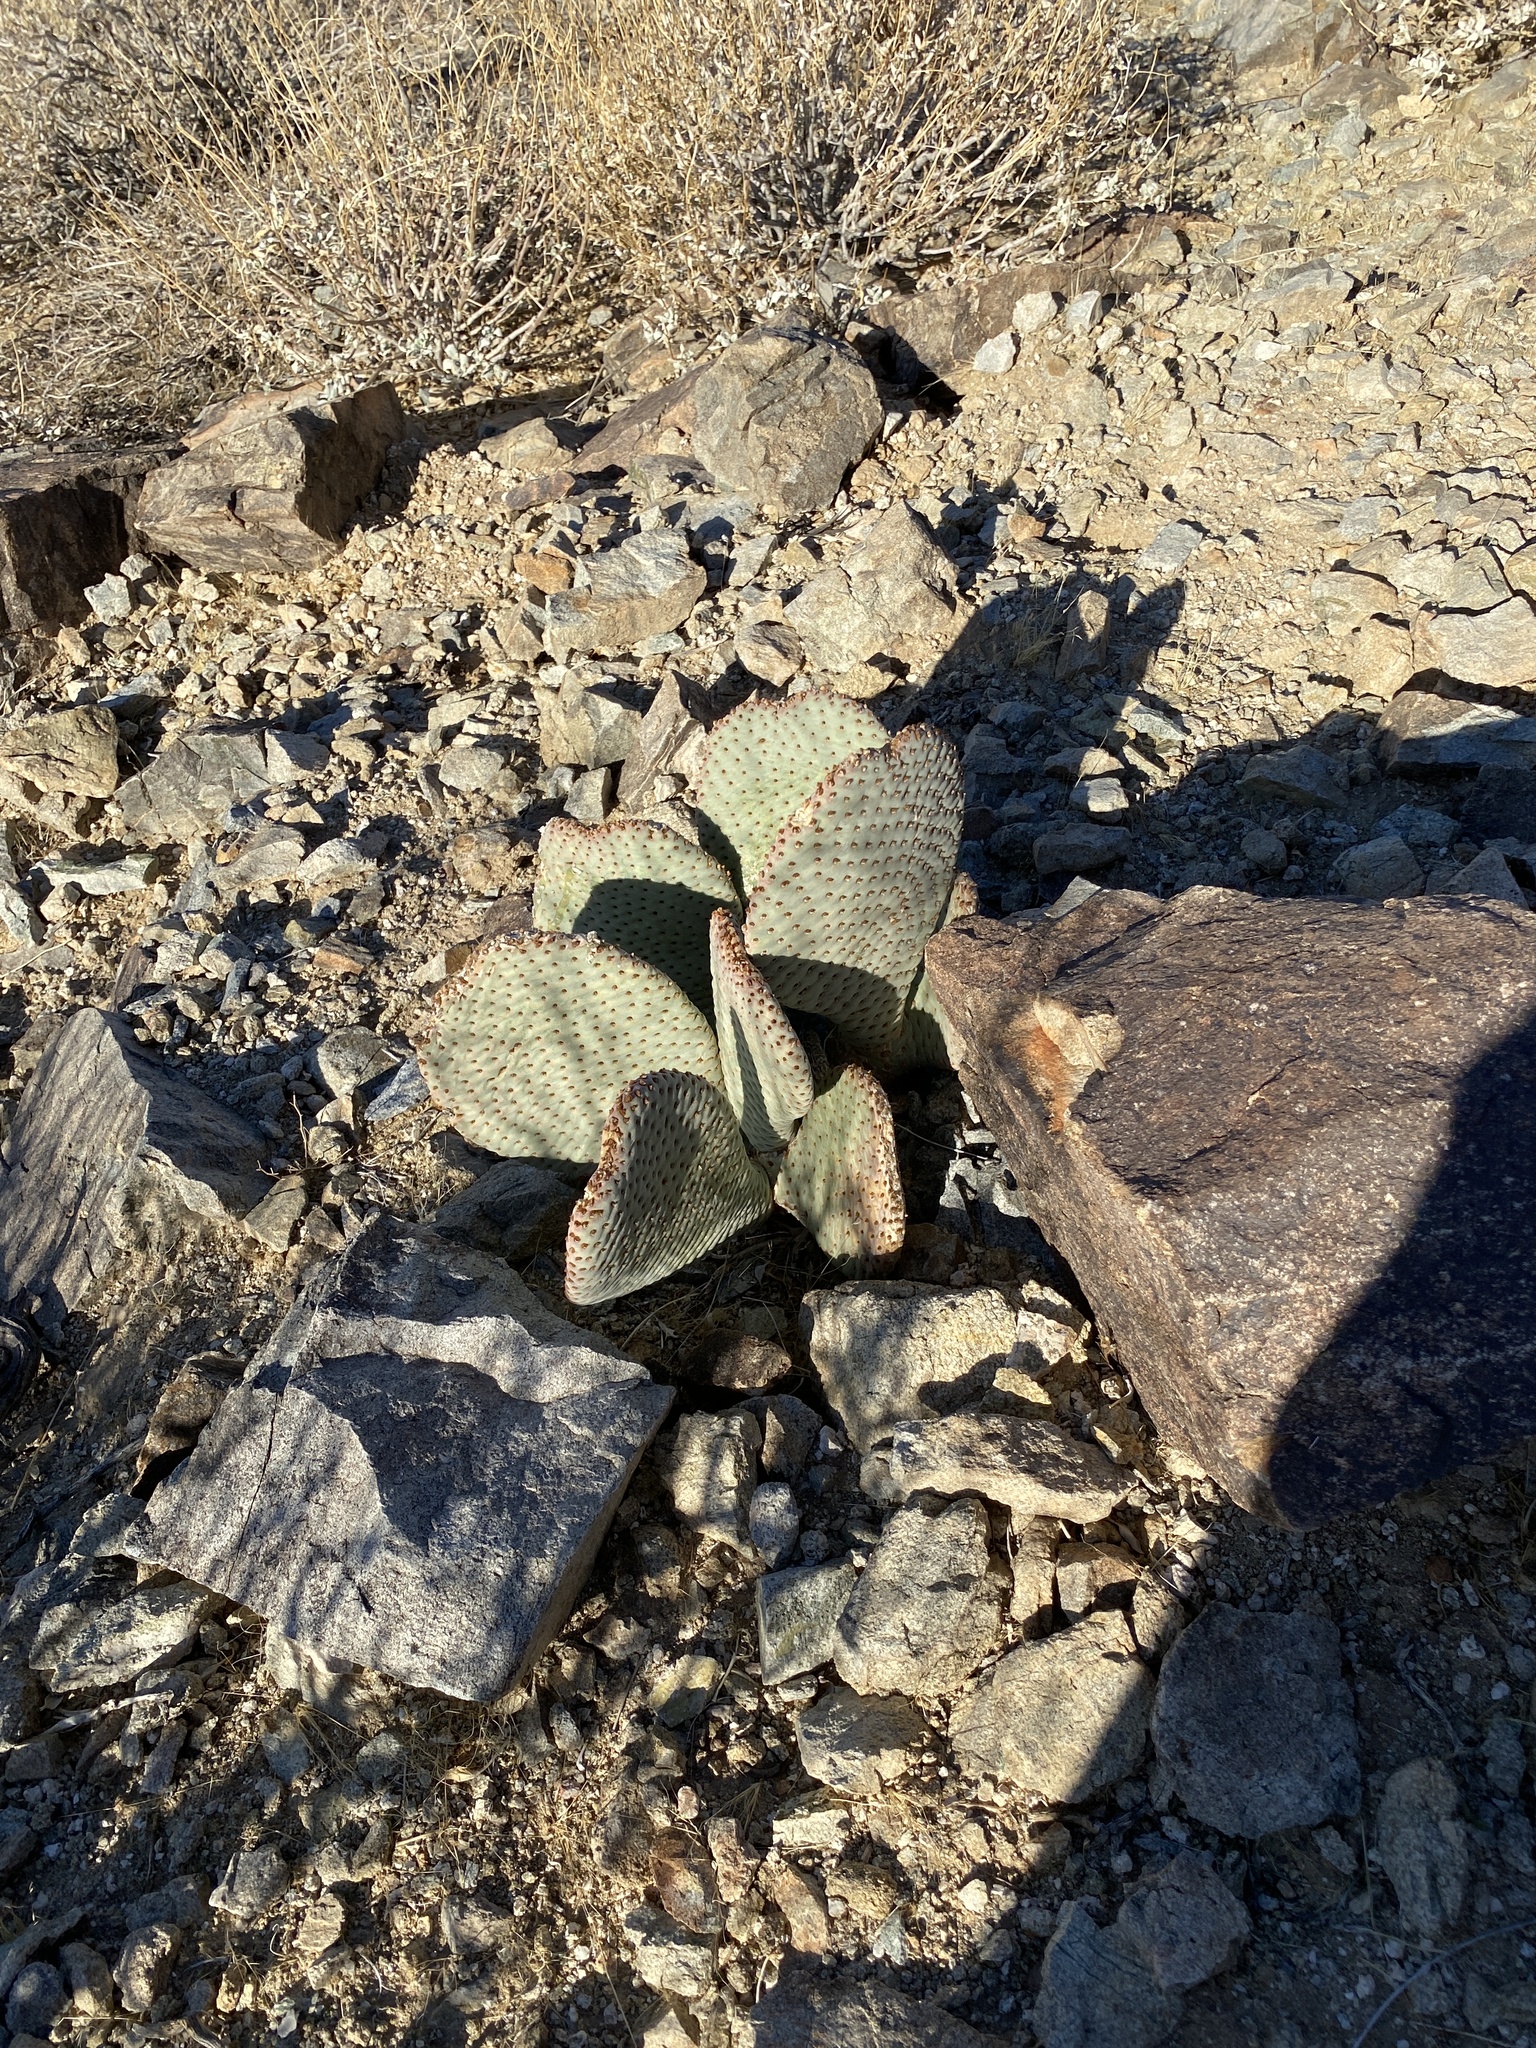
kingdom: Plantae
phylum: Tracheophyta
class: Magnoliopsida
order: Caryophyllales
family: Cactaceae
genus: Opuntia
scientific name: Opuntia basilaris
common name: Beavertail prickly-pear
